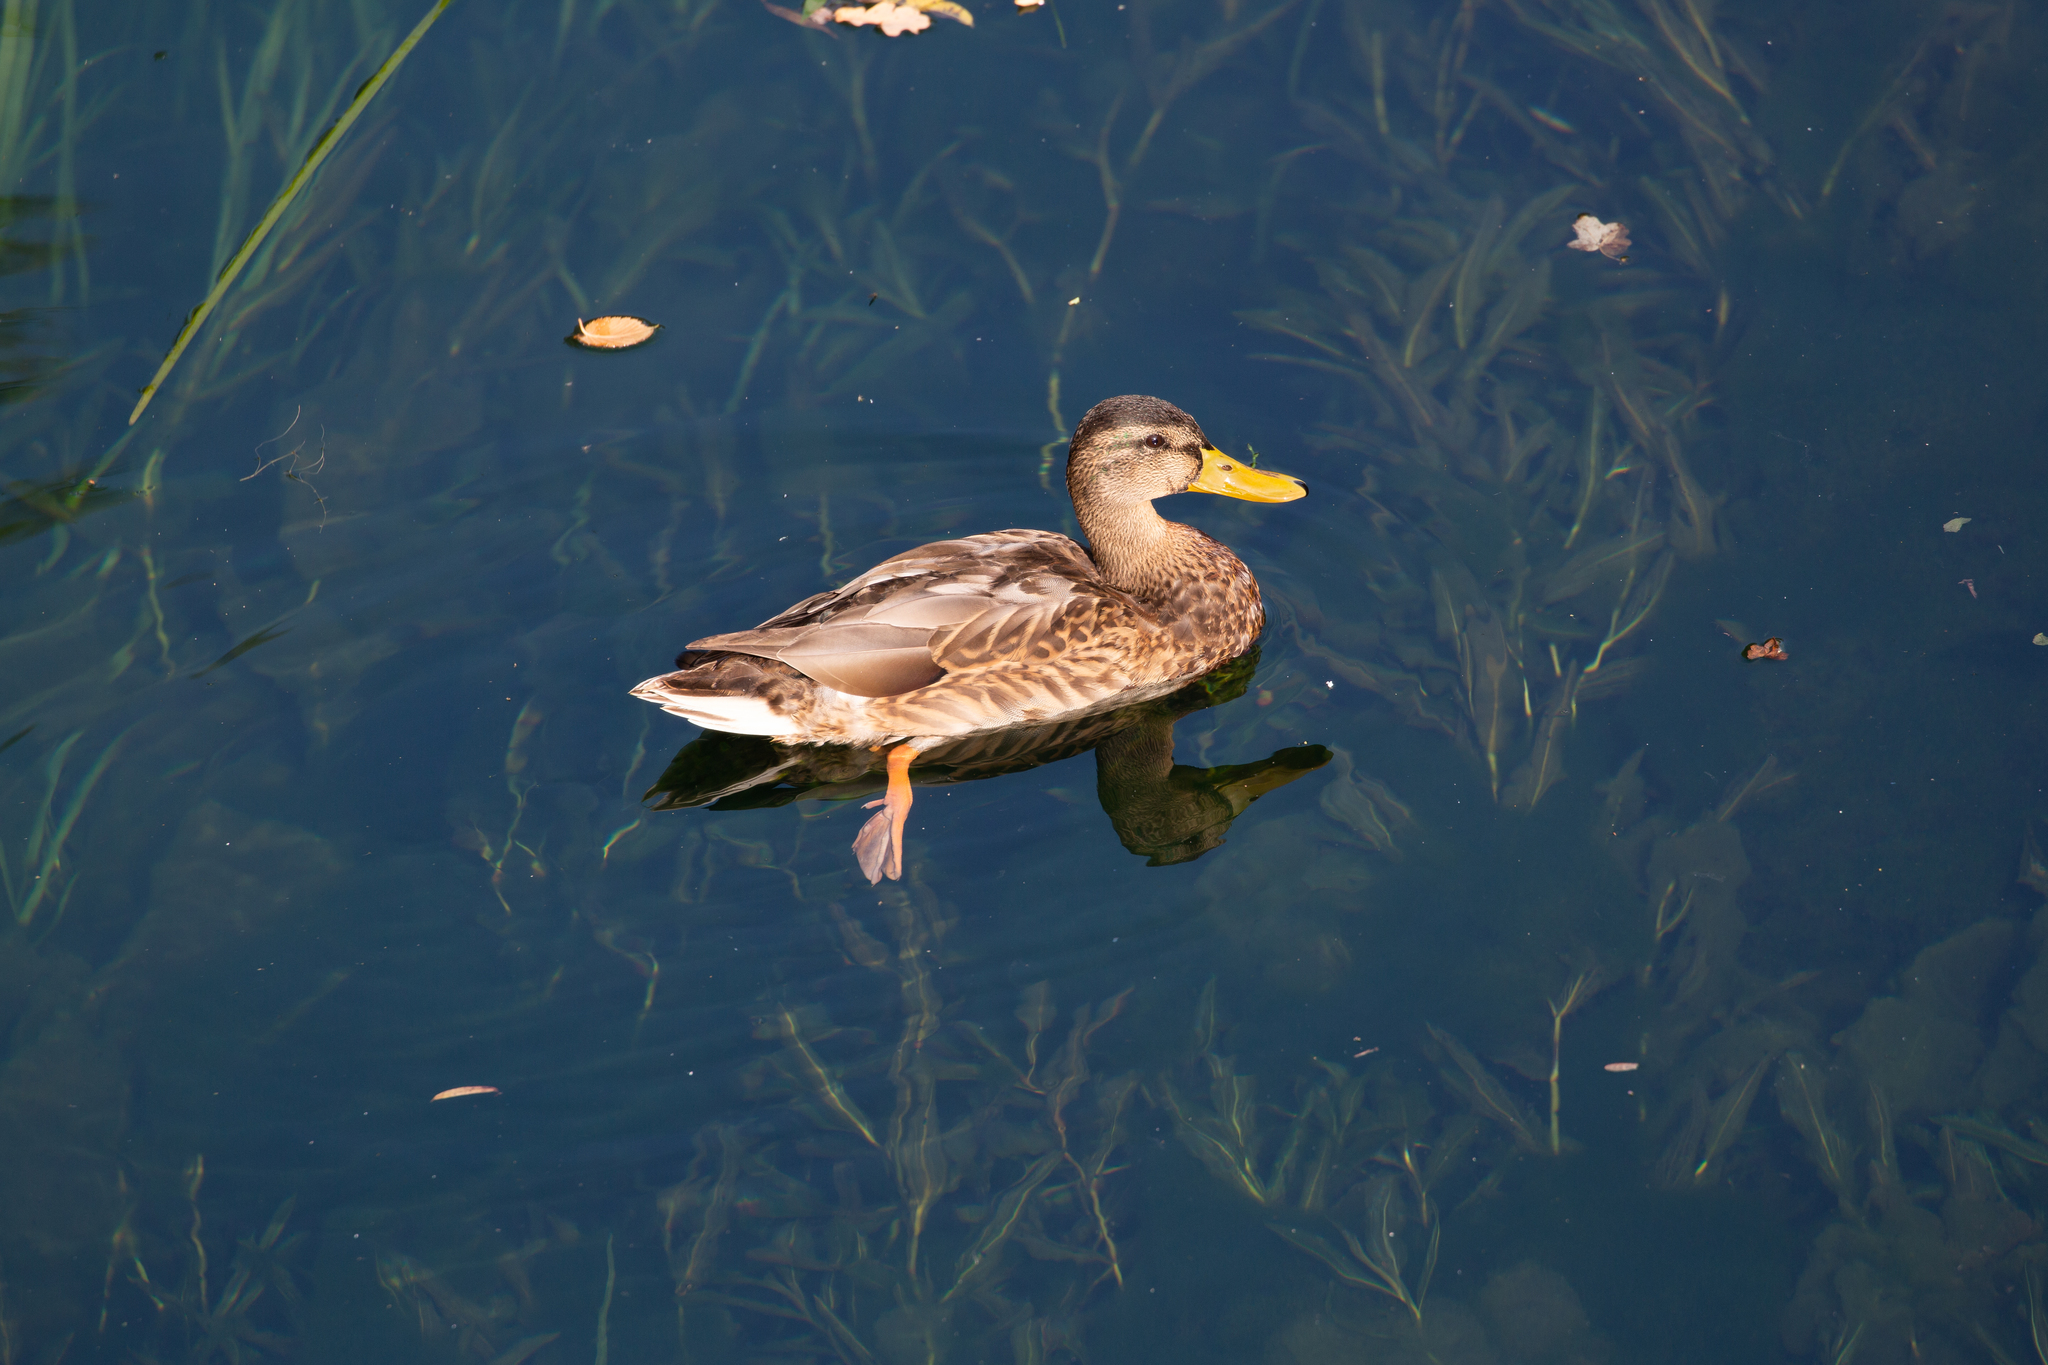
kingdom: Animalia
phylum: Chordata
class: Aves
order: Anseriformes
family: Anatidae
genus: Anas
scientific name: Anas platyrhynchos
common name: Mallard
